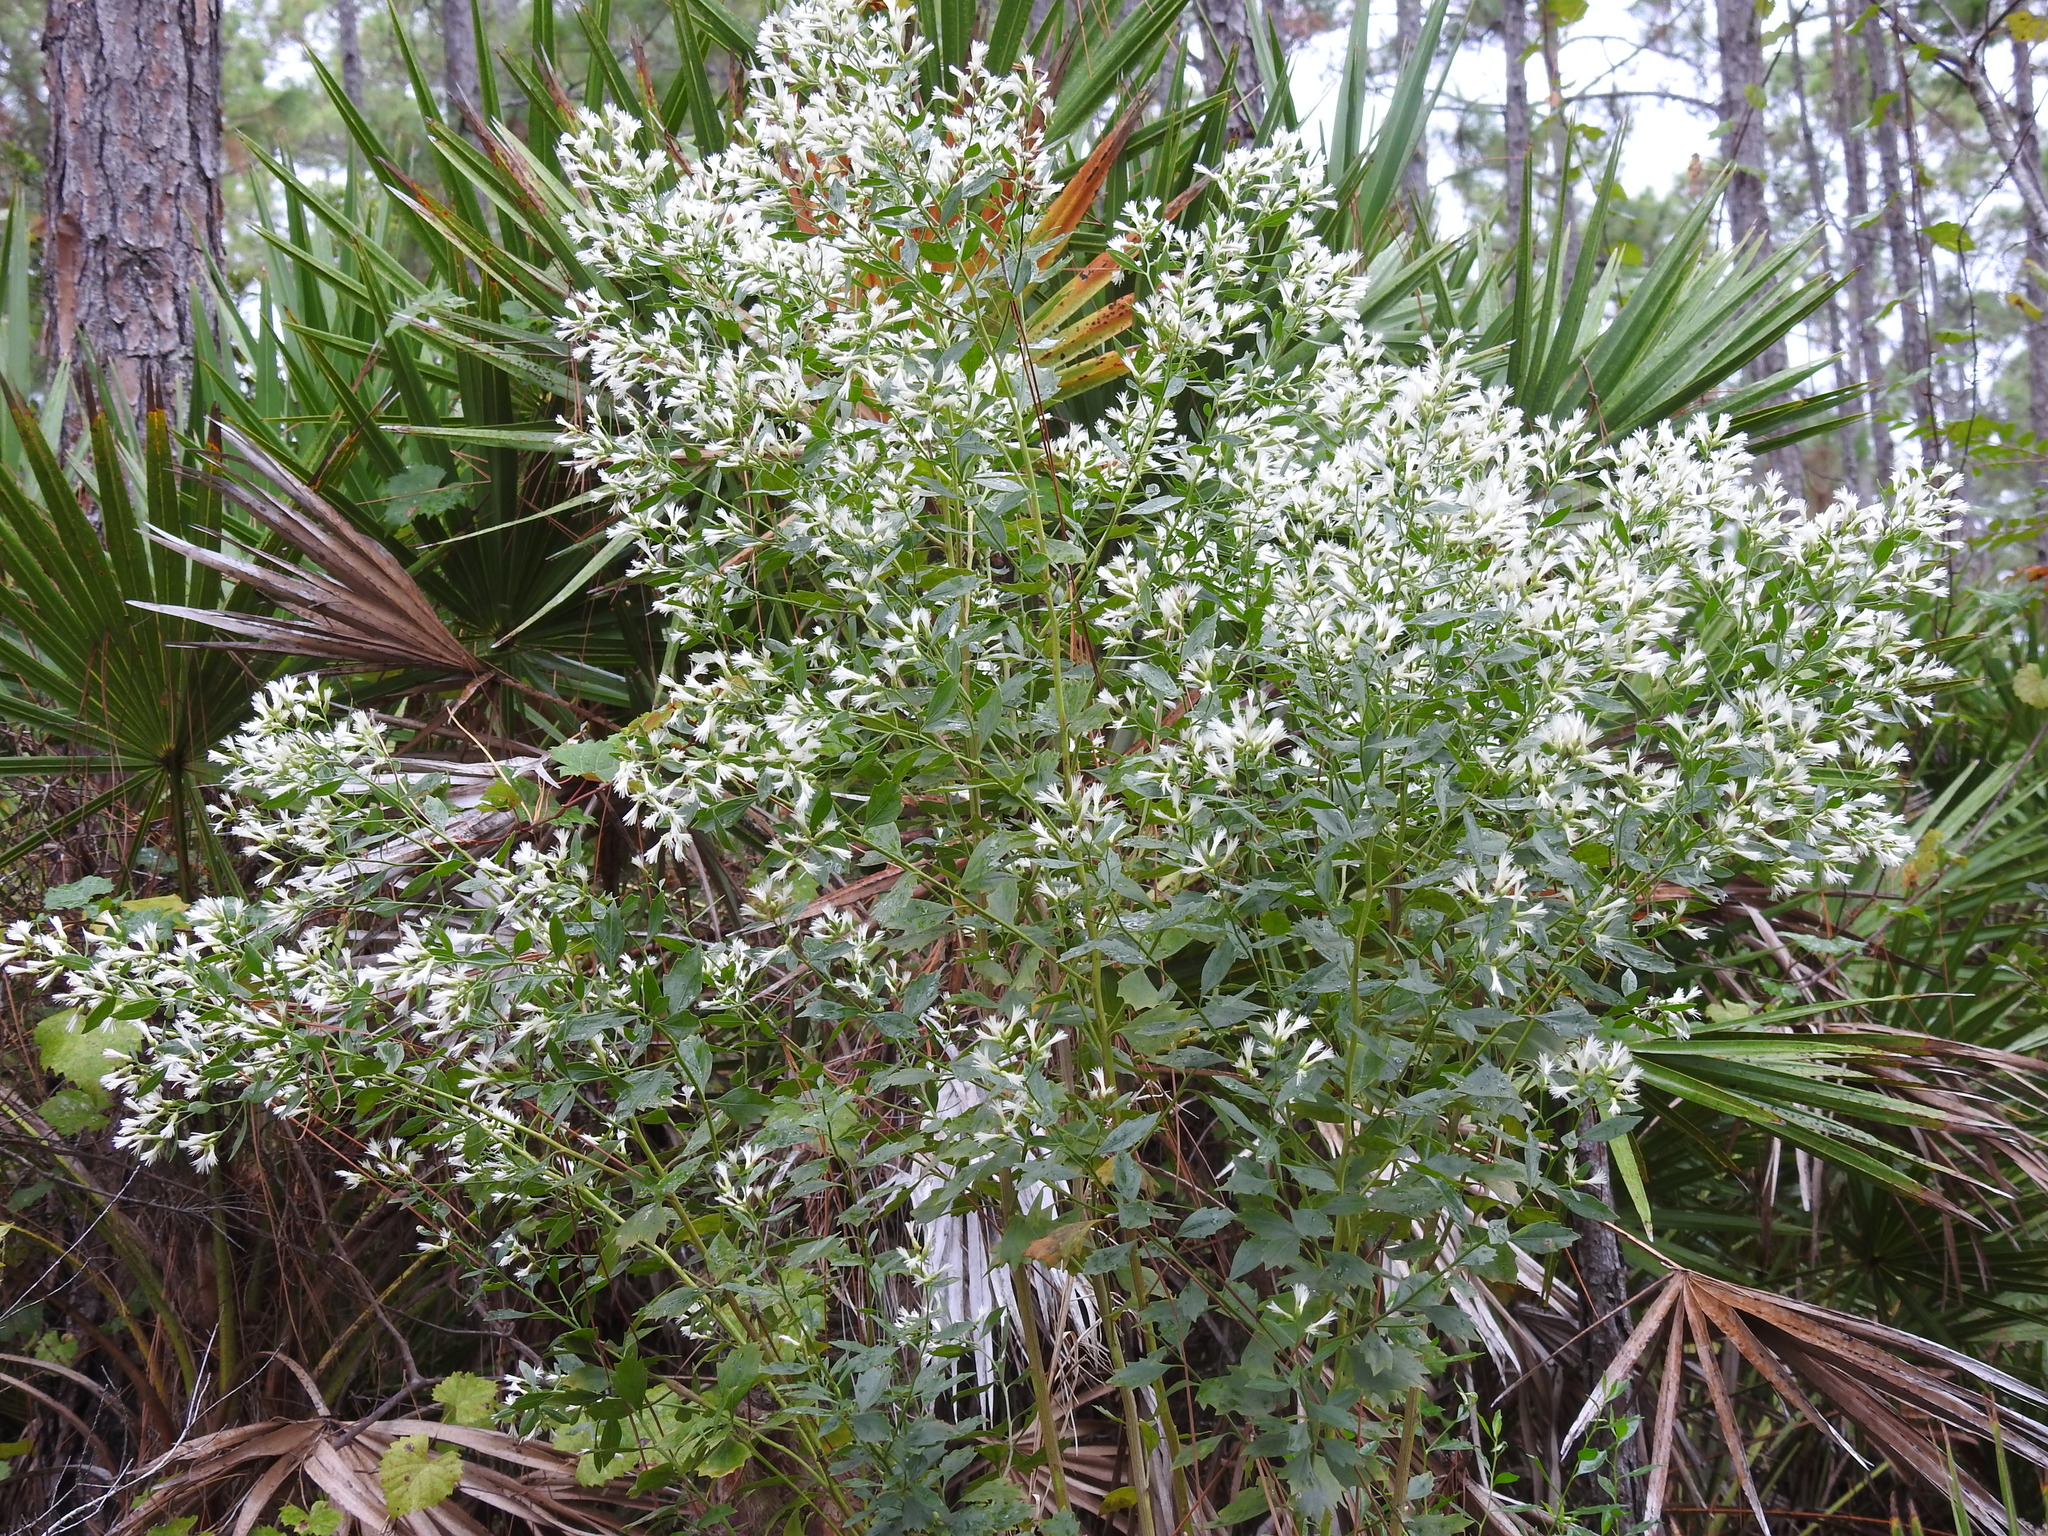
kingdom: Plantae
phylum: Tracheophyta
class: Magnoliopsida
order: Asterales
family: Asteraceae
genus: Baccharis
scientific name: Baccharis halimifolia
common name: Eastern baccharis
